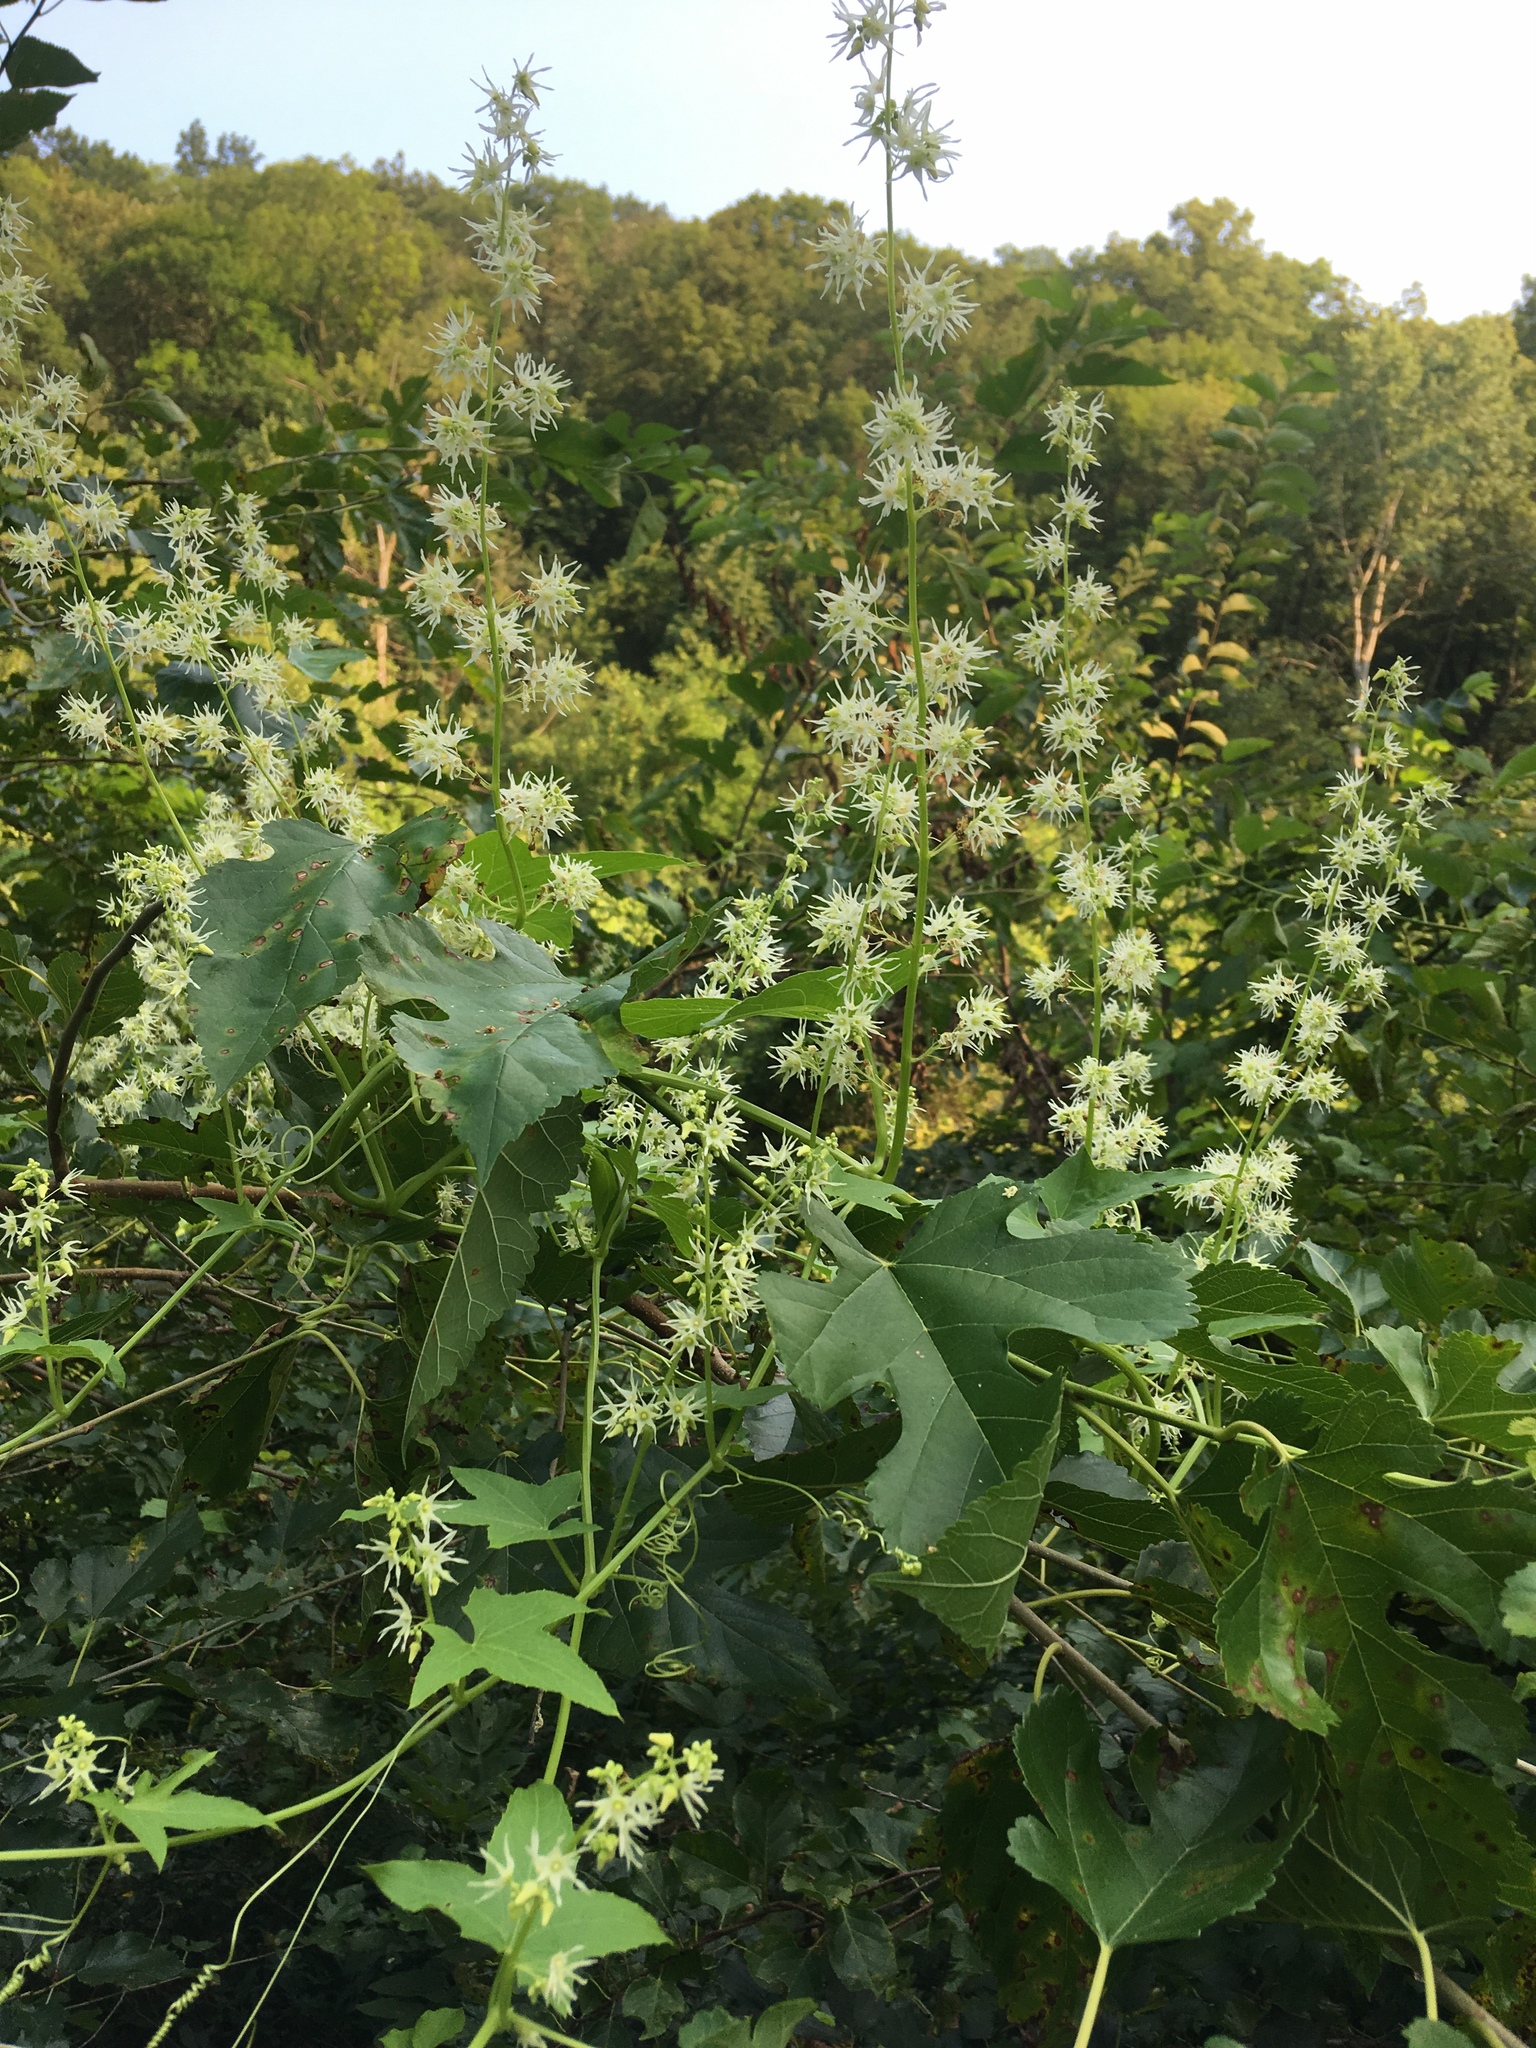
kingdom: Plantae
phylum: Tracheophyta
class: Magnoliopsida
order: Cucurbitales
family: Cucurbitaceae
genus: Echinocystis
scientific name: Echinocystis lobata
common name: Wild cucumber
